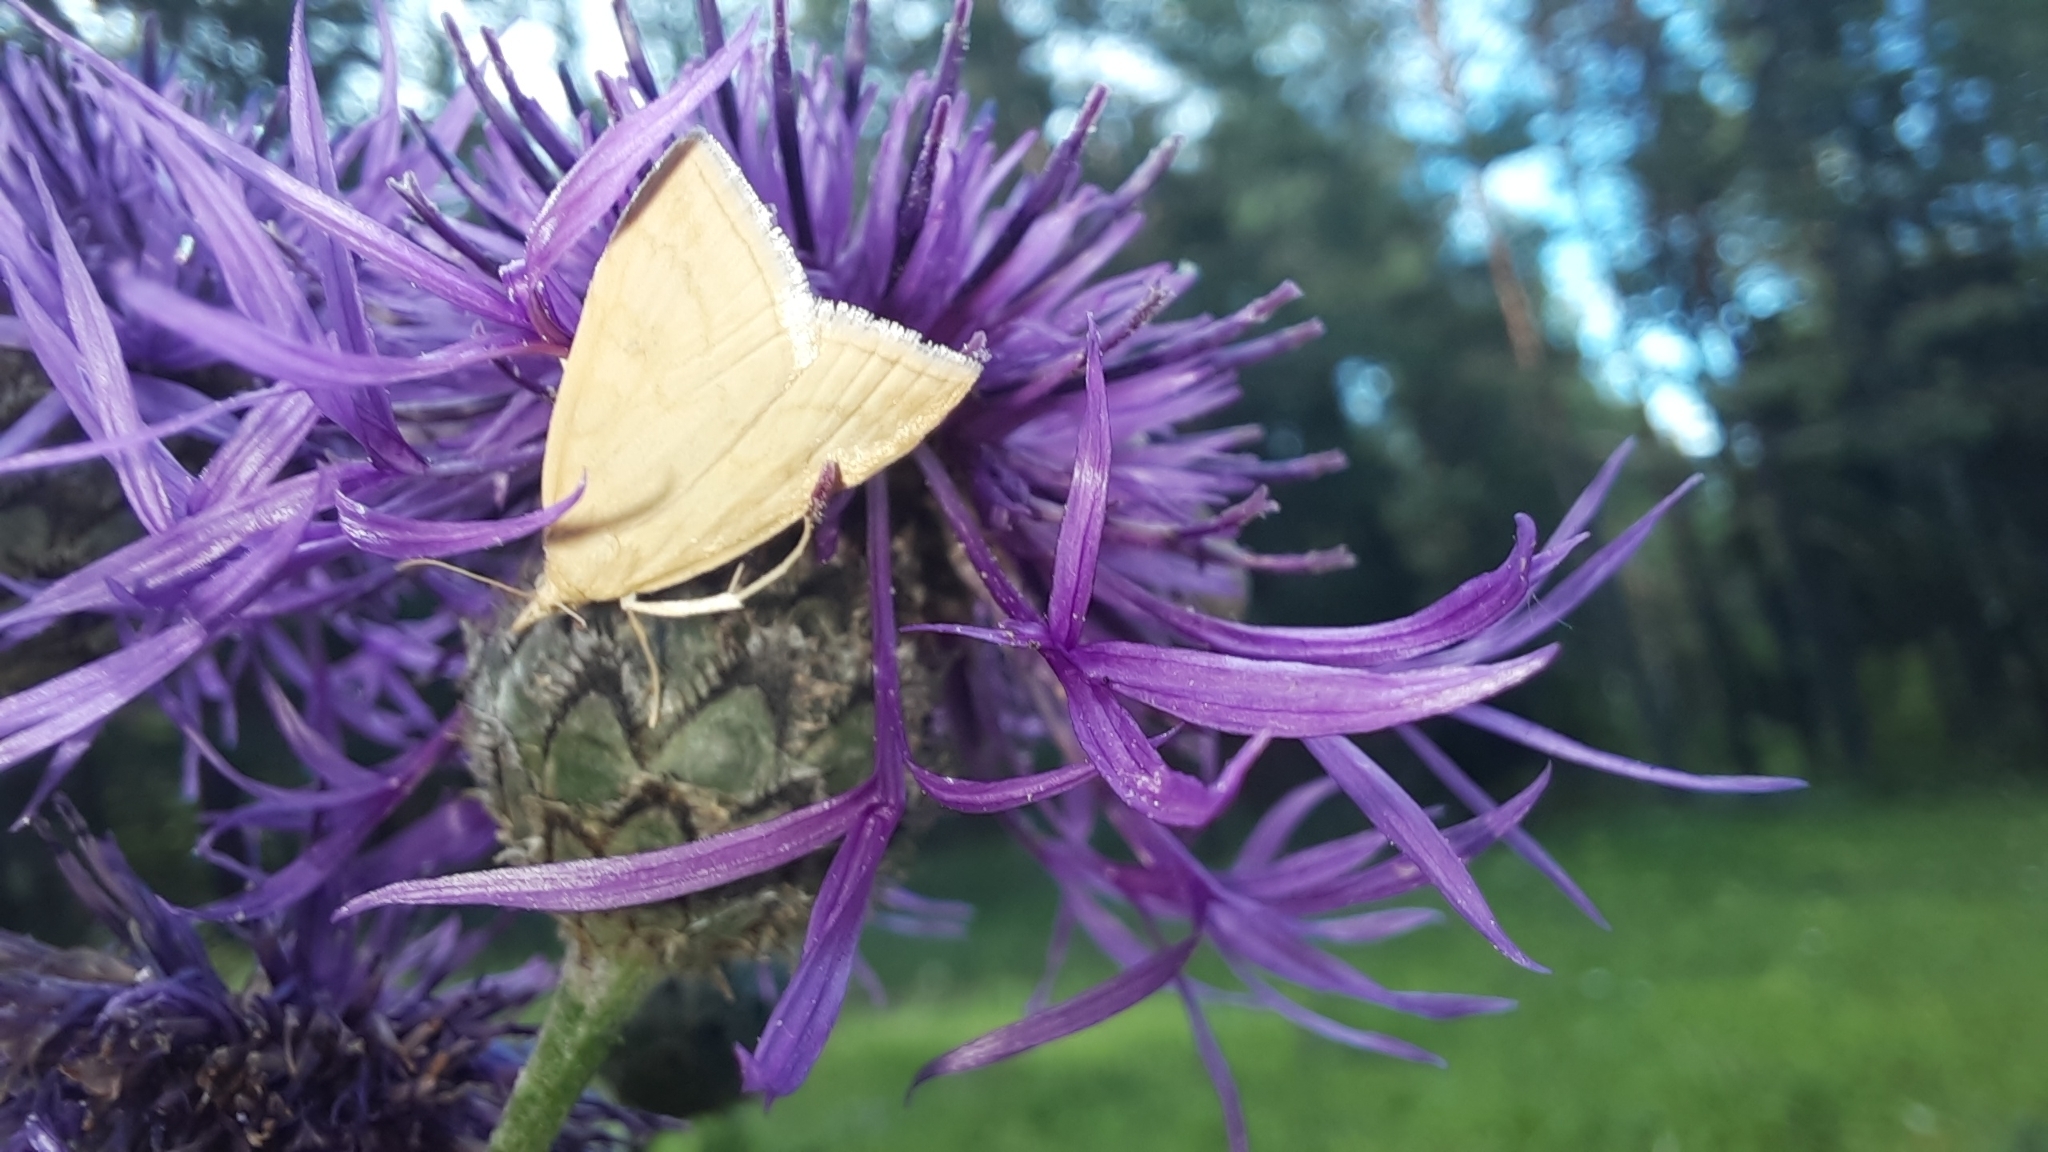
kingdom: Animalia
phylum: Arthropoda
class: Insecta
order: Lepidoptera
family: Crambidae
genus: Udea
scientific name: Udea lutealis
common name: Pale straw pearl
